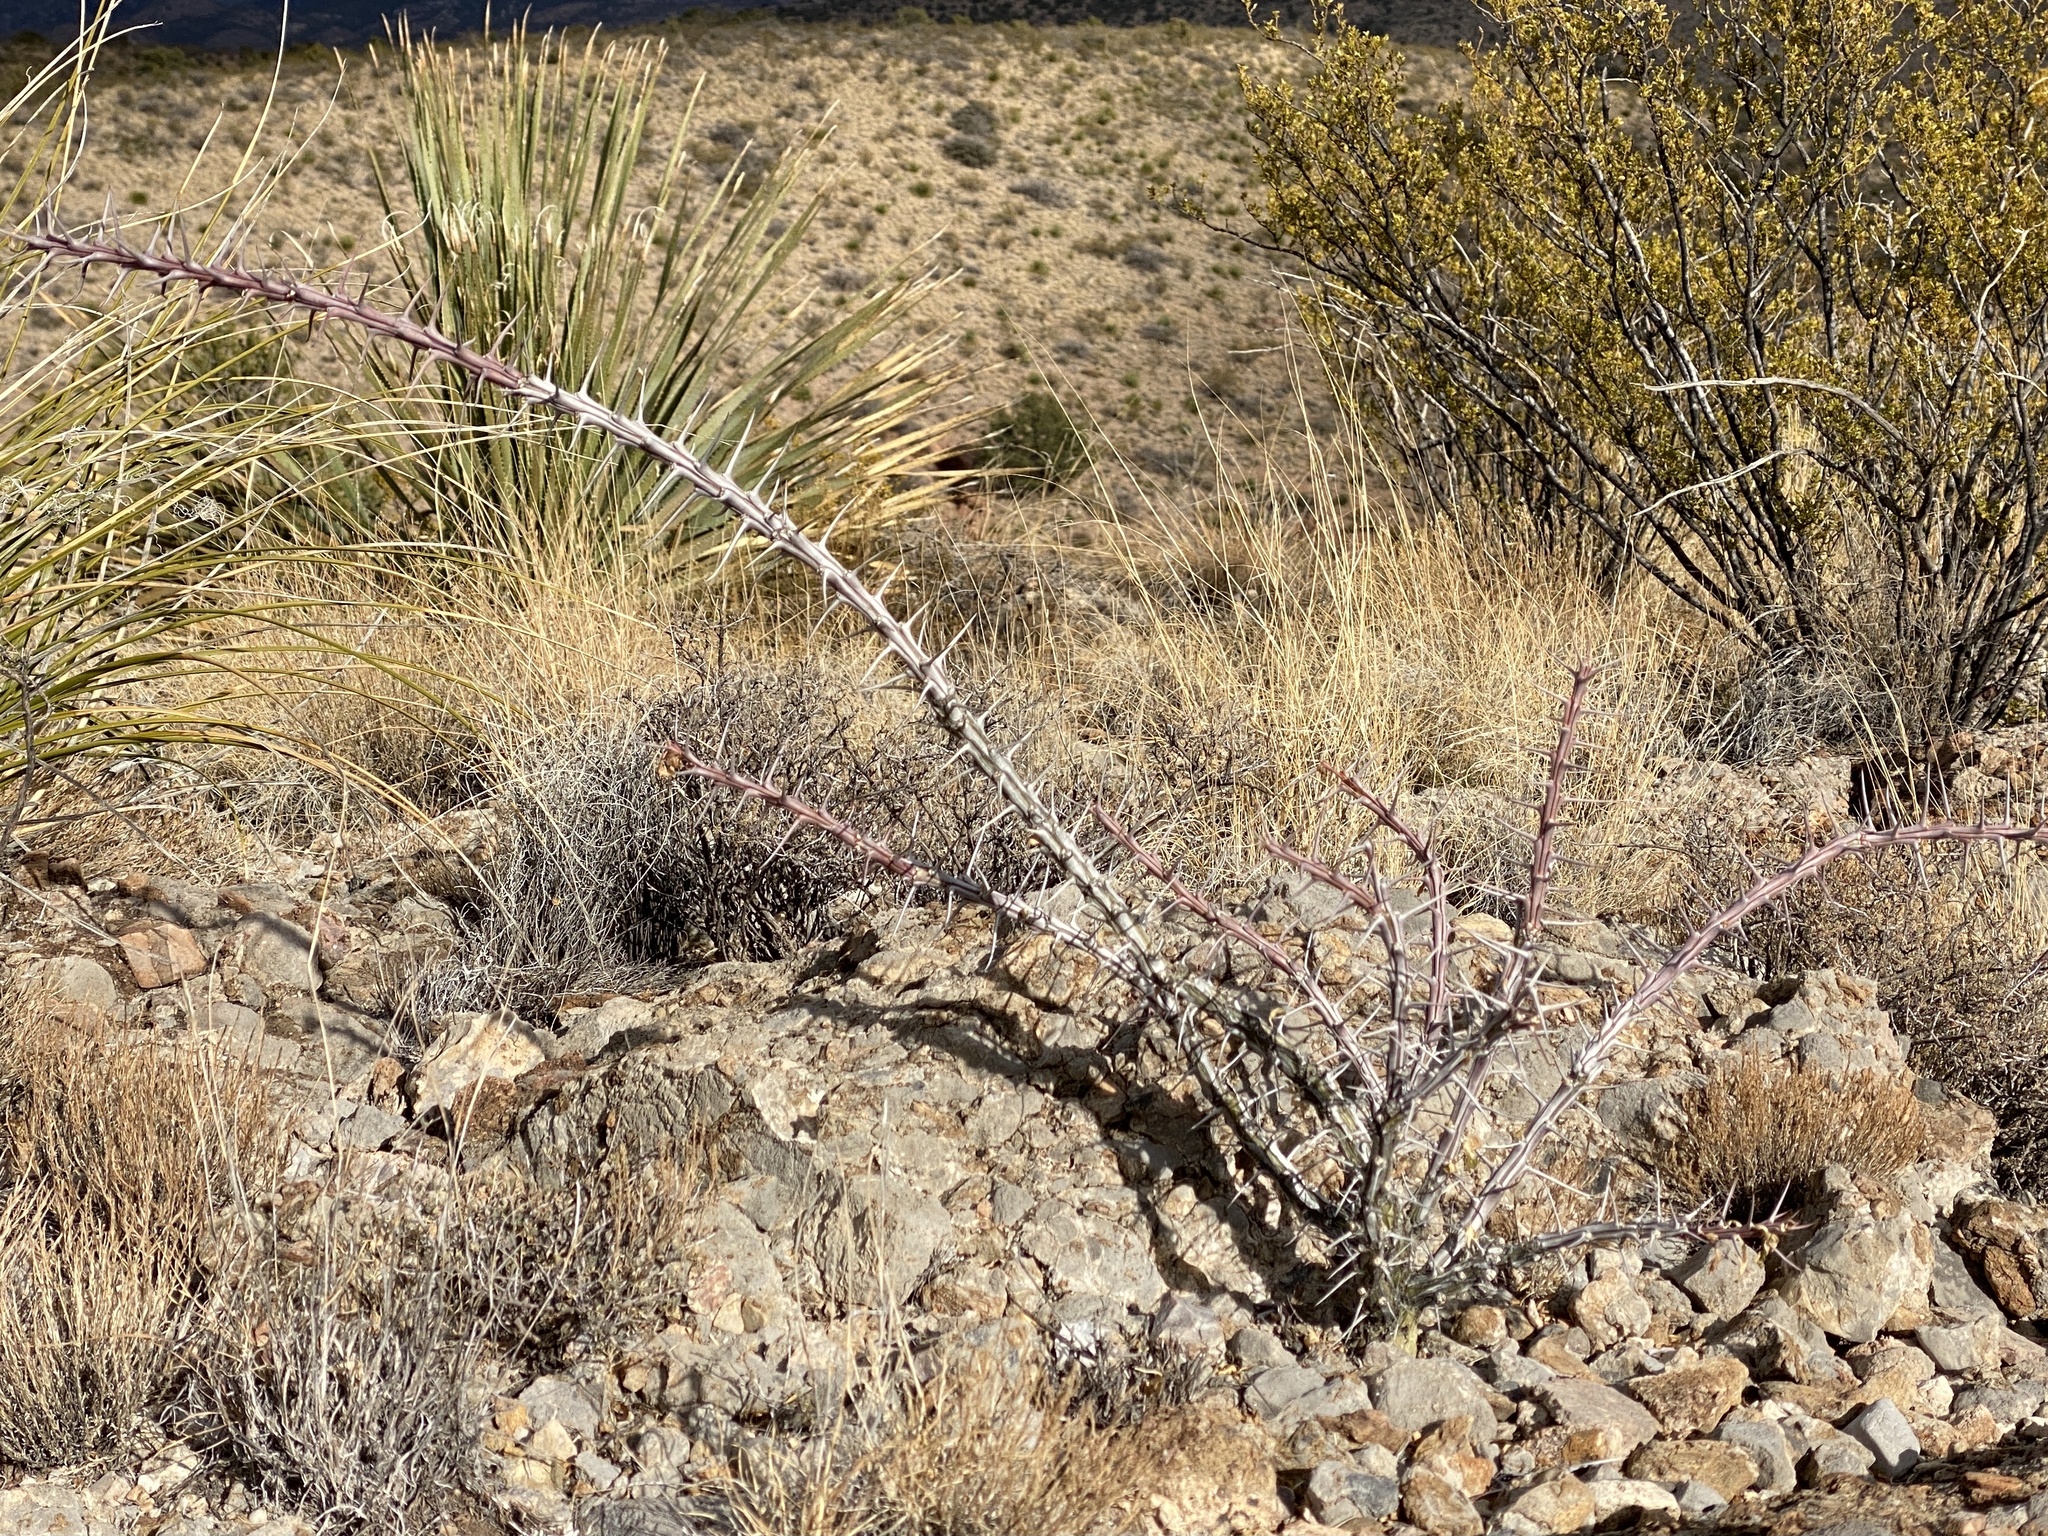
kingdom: Plantae
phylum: Tracheophyta
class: Magnoliopsida
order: Ericales
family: Fouquieriaceae
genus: Fouquieria
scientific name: Fouquieria splendens
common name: Vine-cactus
